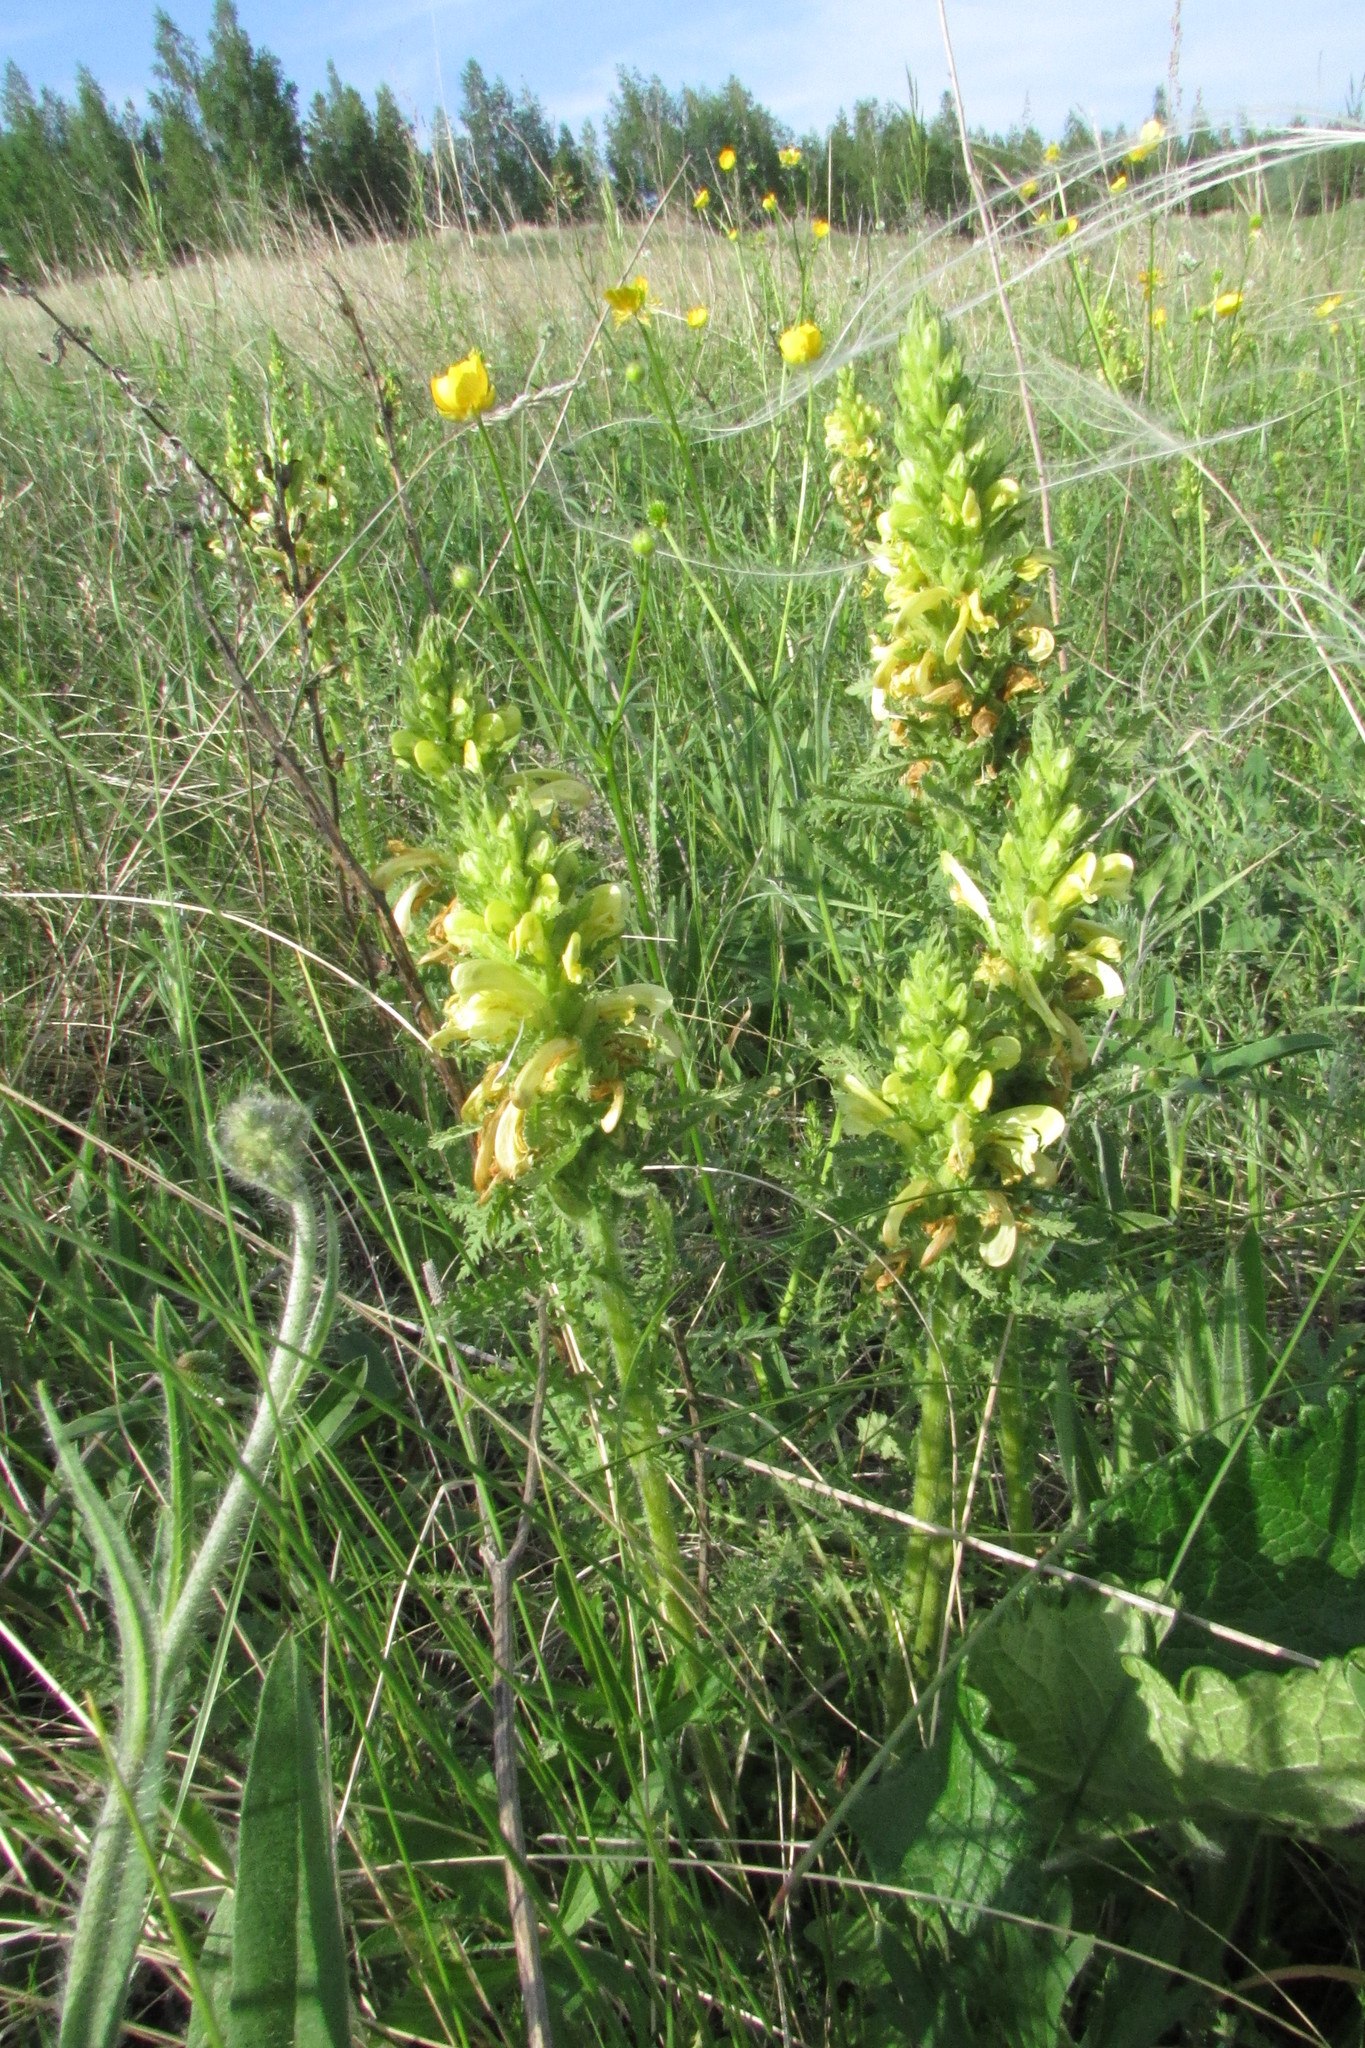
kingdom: Plantae
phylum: Tracheophyta
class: Magnoliopsida
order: Lamiales
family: Orobanchaceae
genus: Pedicularis
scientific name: Pedicularis kaufmannii
